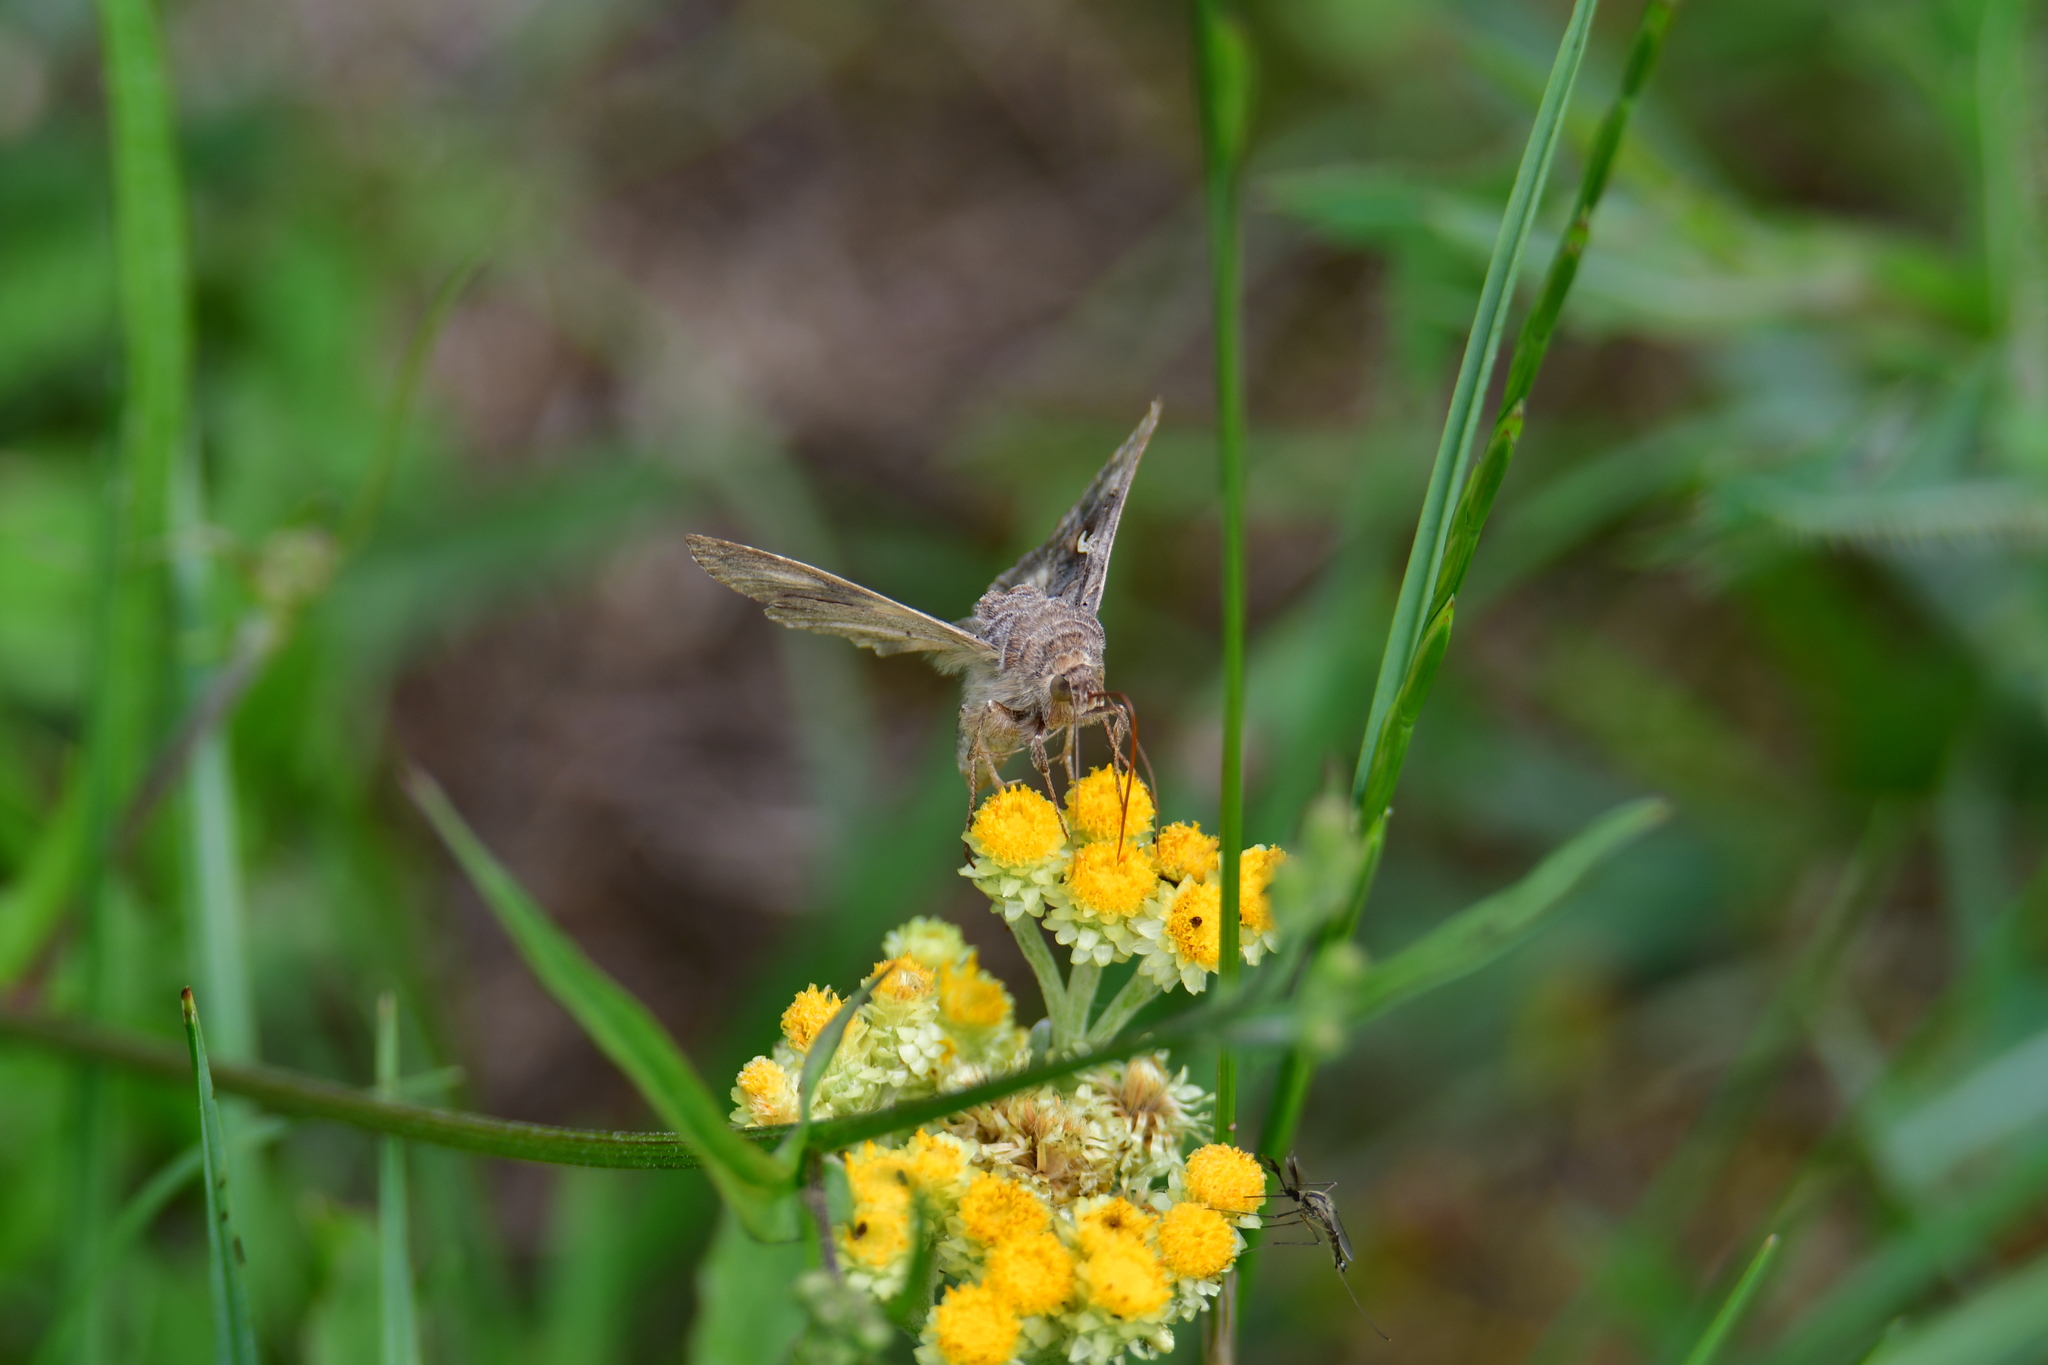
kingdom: Animalia
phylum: Arthropoda
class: Insecta
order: Lepidoptera
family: Noctuidae
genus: Autographa
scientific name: Autographa gamma
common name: Silver y
